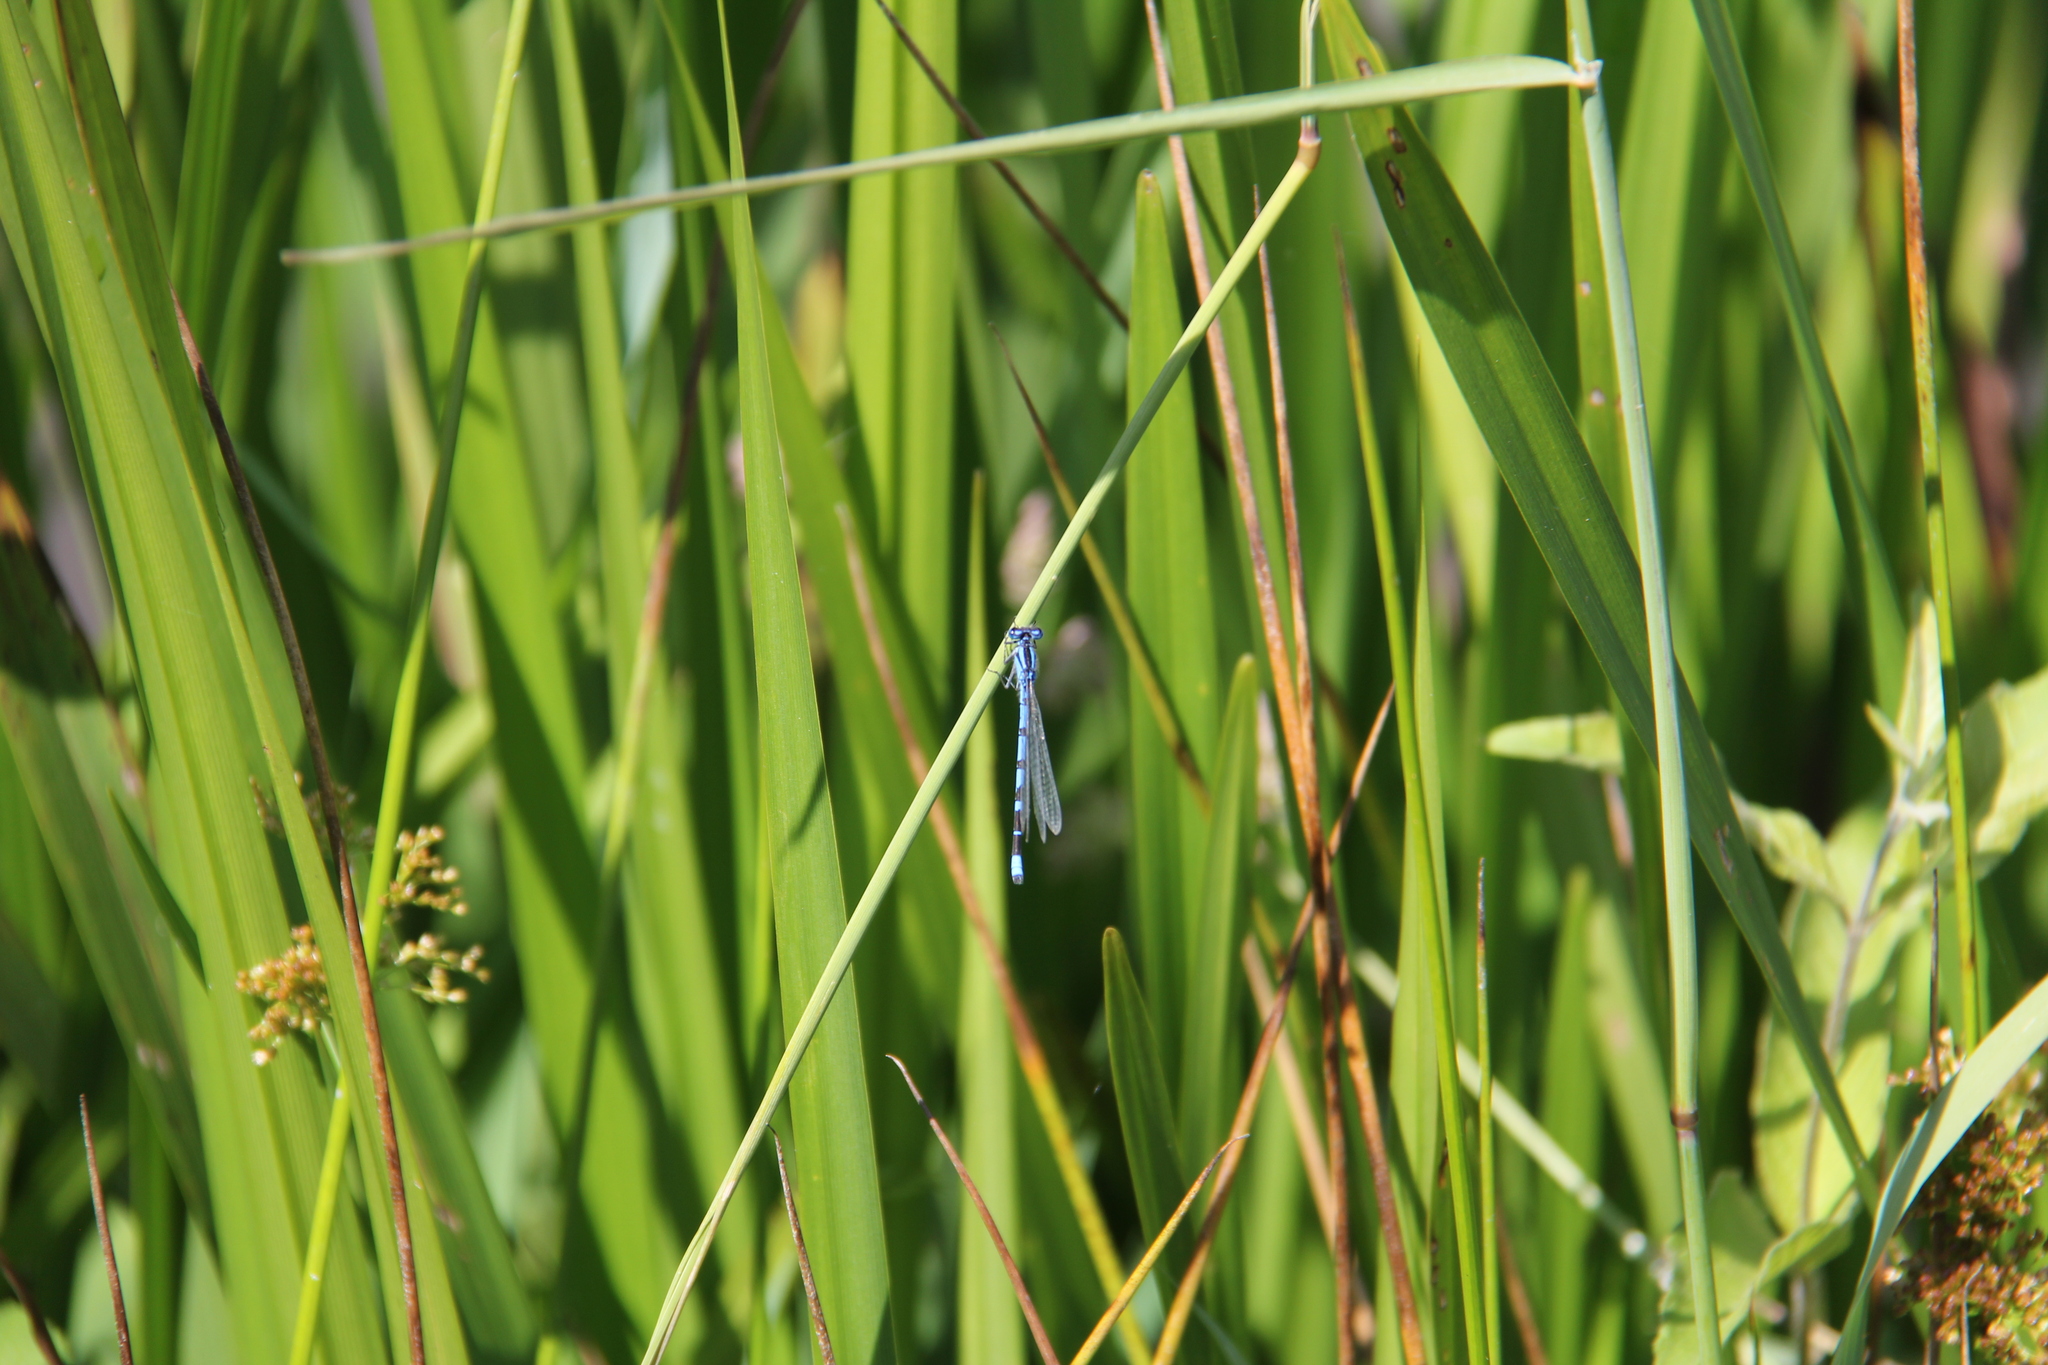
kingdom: Animalia
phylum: Arthropoda
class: Insecta
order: Odonata
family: Coenagrionidae
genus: Enallagma
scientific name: Enallagma cyathigerum
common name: Common blue damselfly
